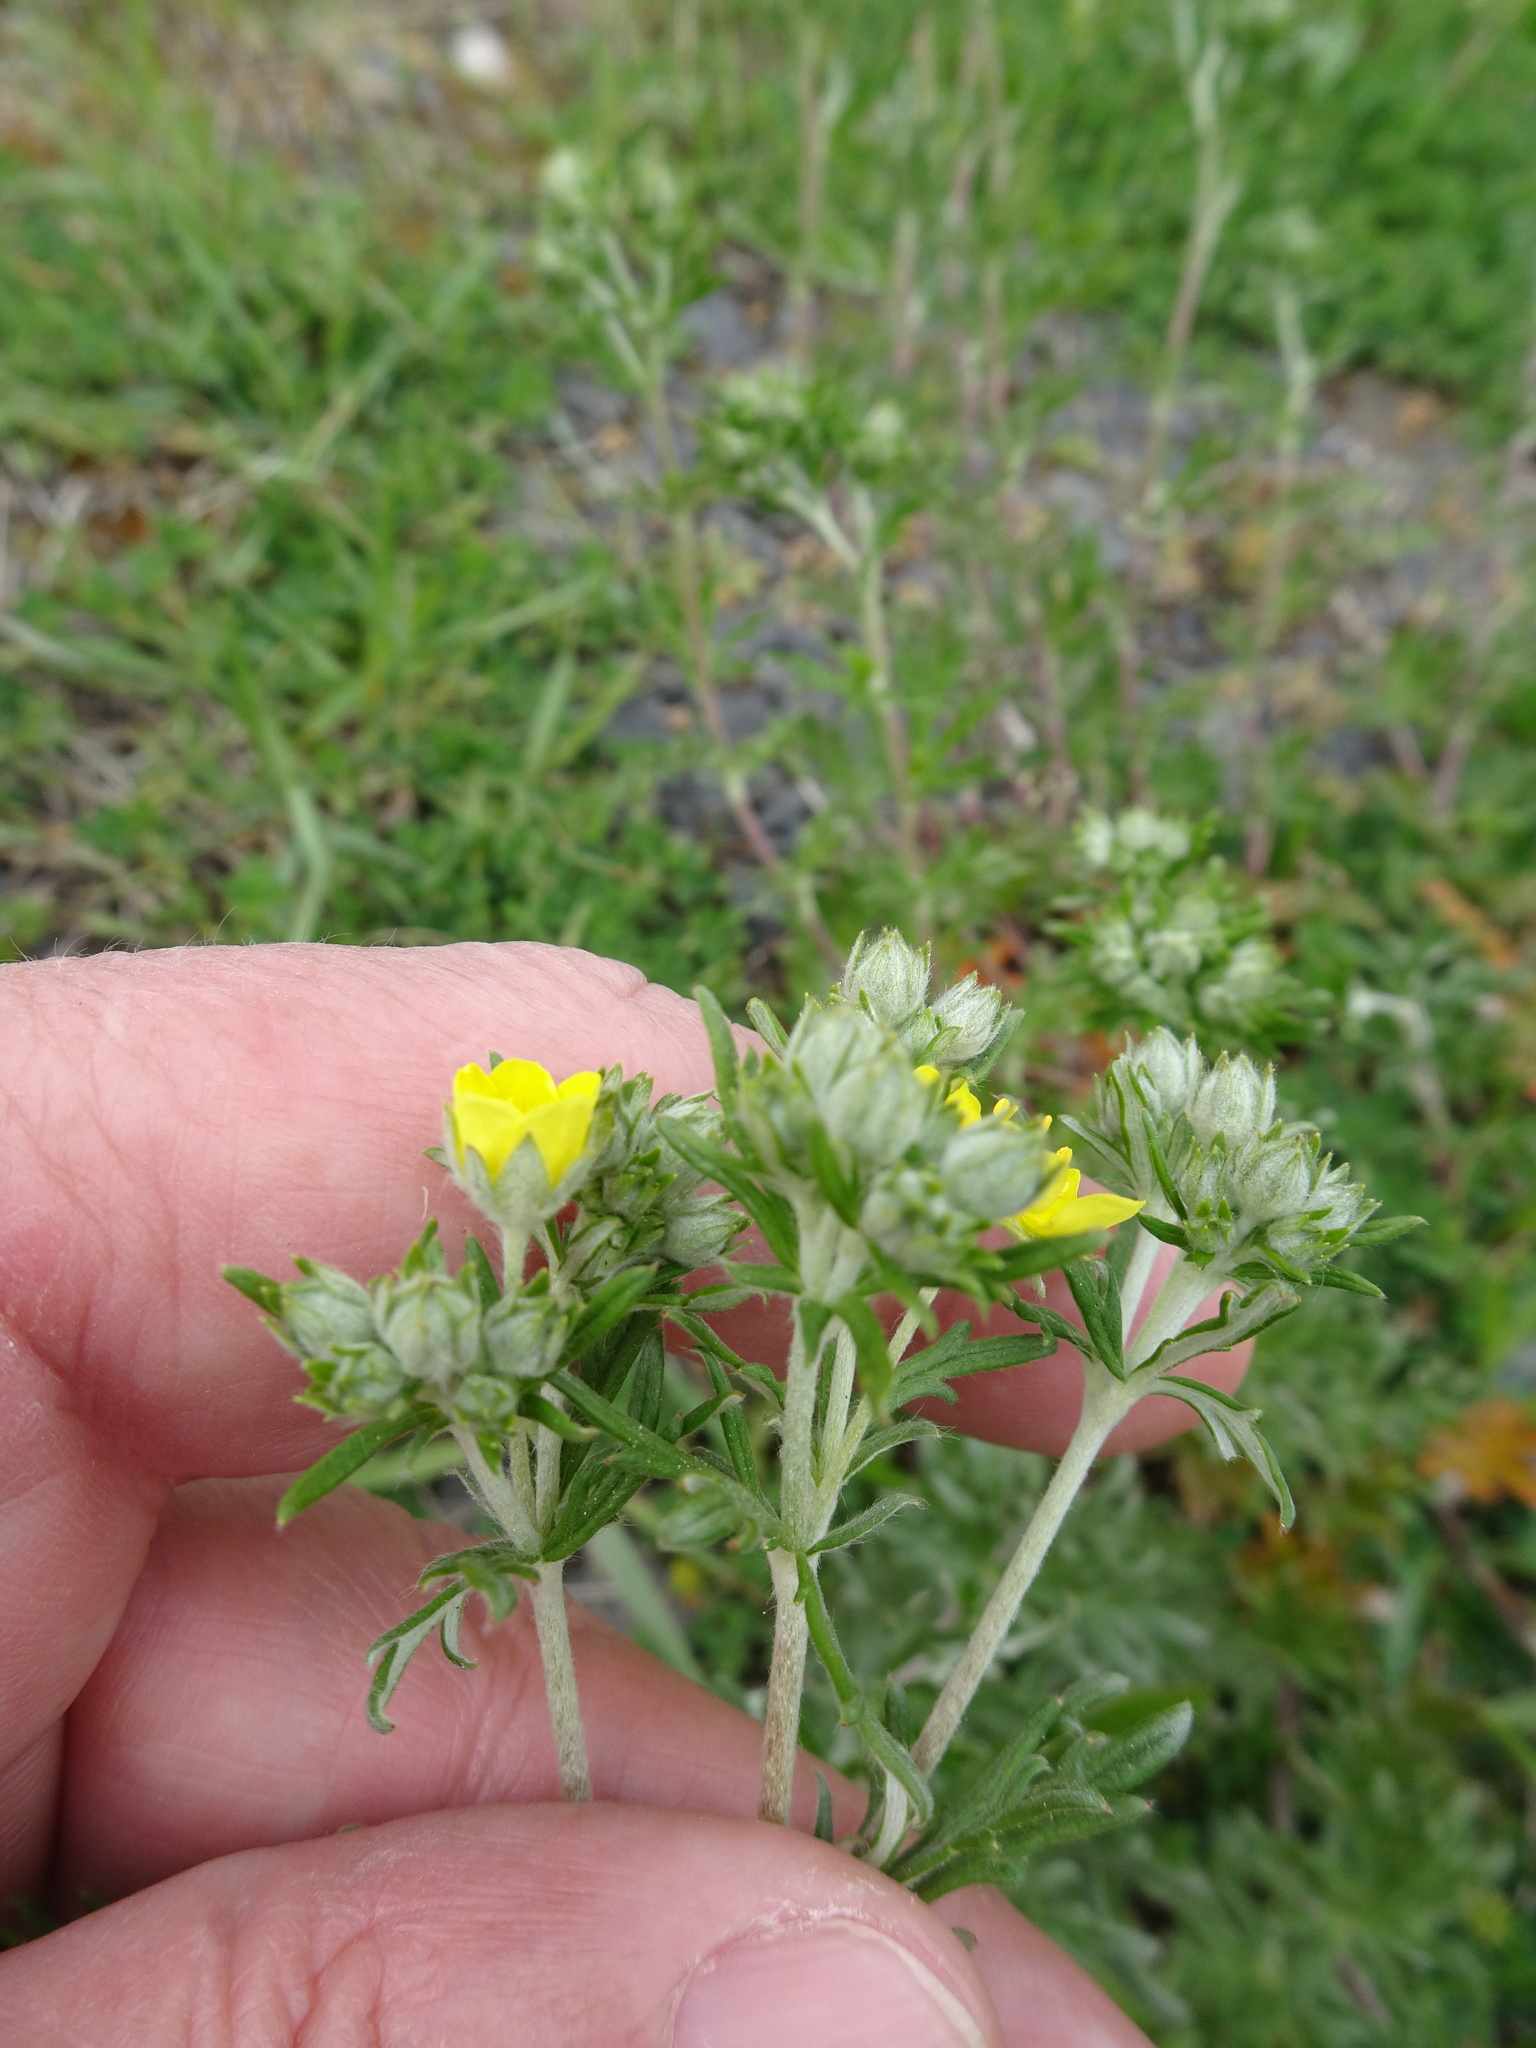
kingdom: Plantae
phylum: Tracheophyta
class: Magnoliopsida
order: Rosales
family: Rosaceae
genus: Potentilla
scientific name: Potentilla argentea
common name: Hoary cinquefoil
